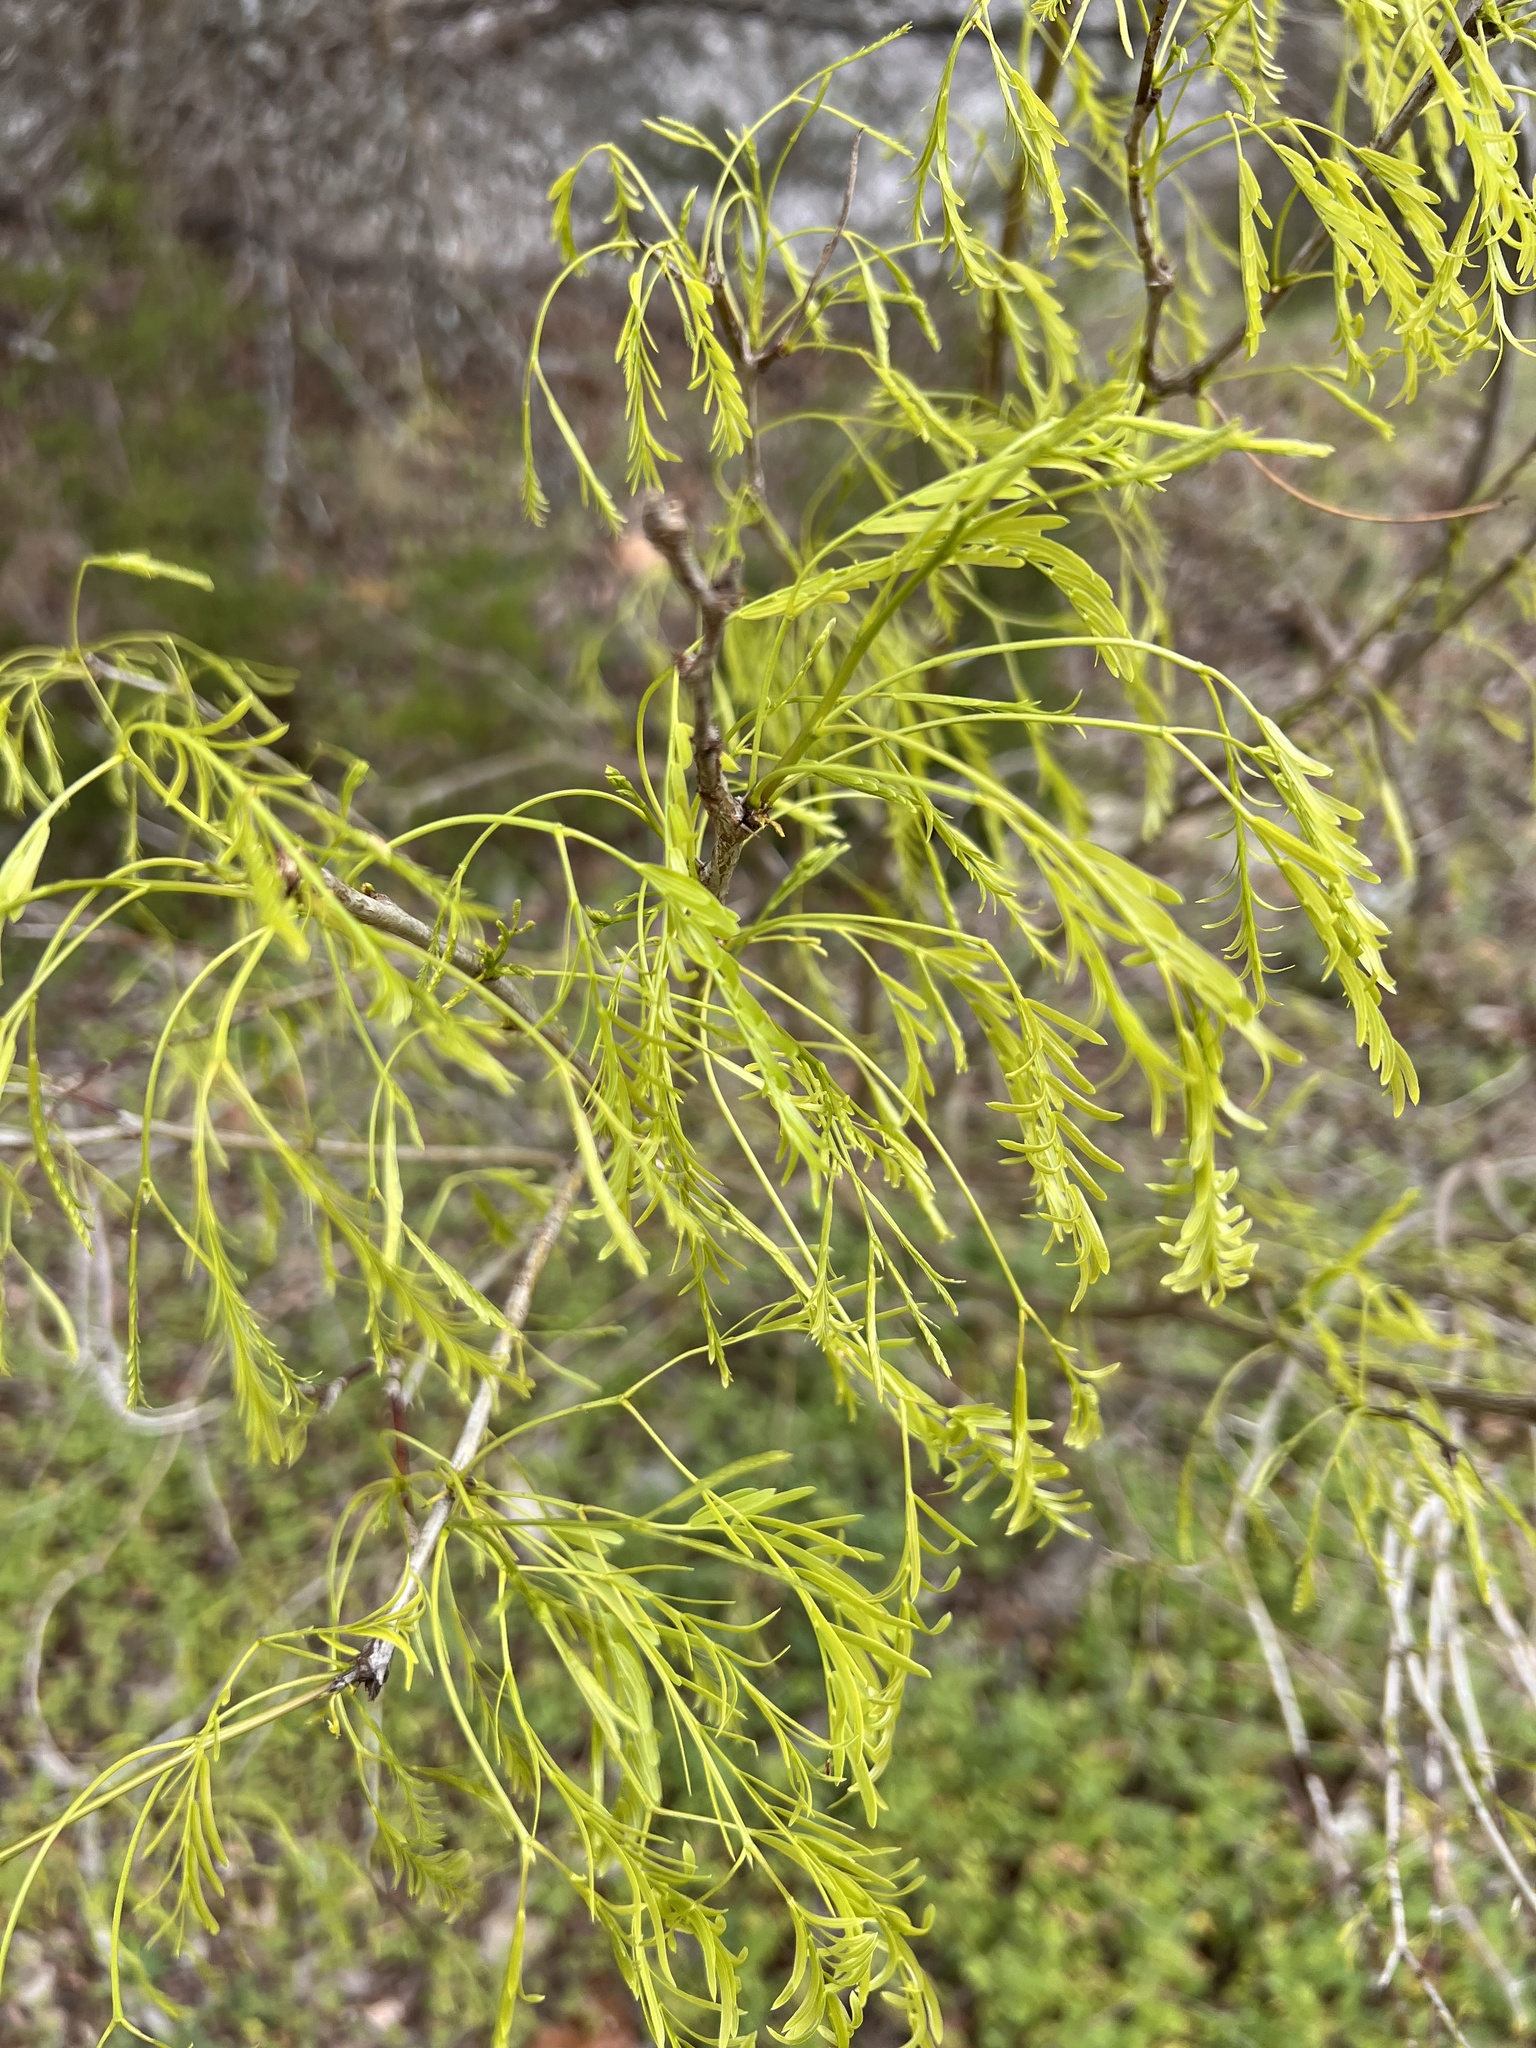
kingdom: Plantae
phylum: Tracheophyta
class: Magnoliopsida
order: Fabales
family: Fabaceae
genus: Prosopis
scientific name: Prosopis glandulosa
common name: Honey mesquite
